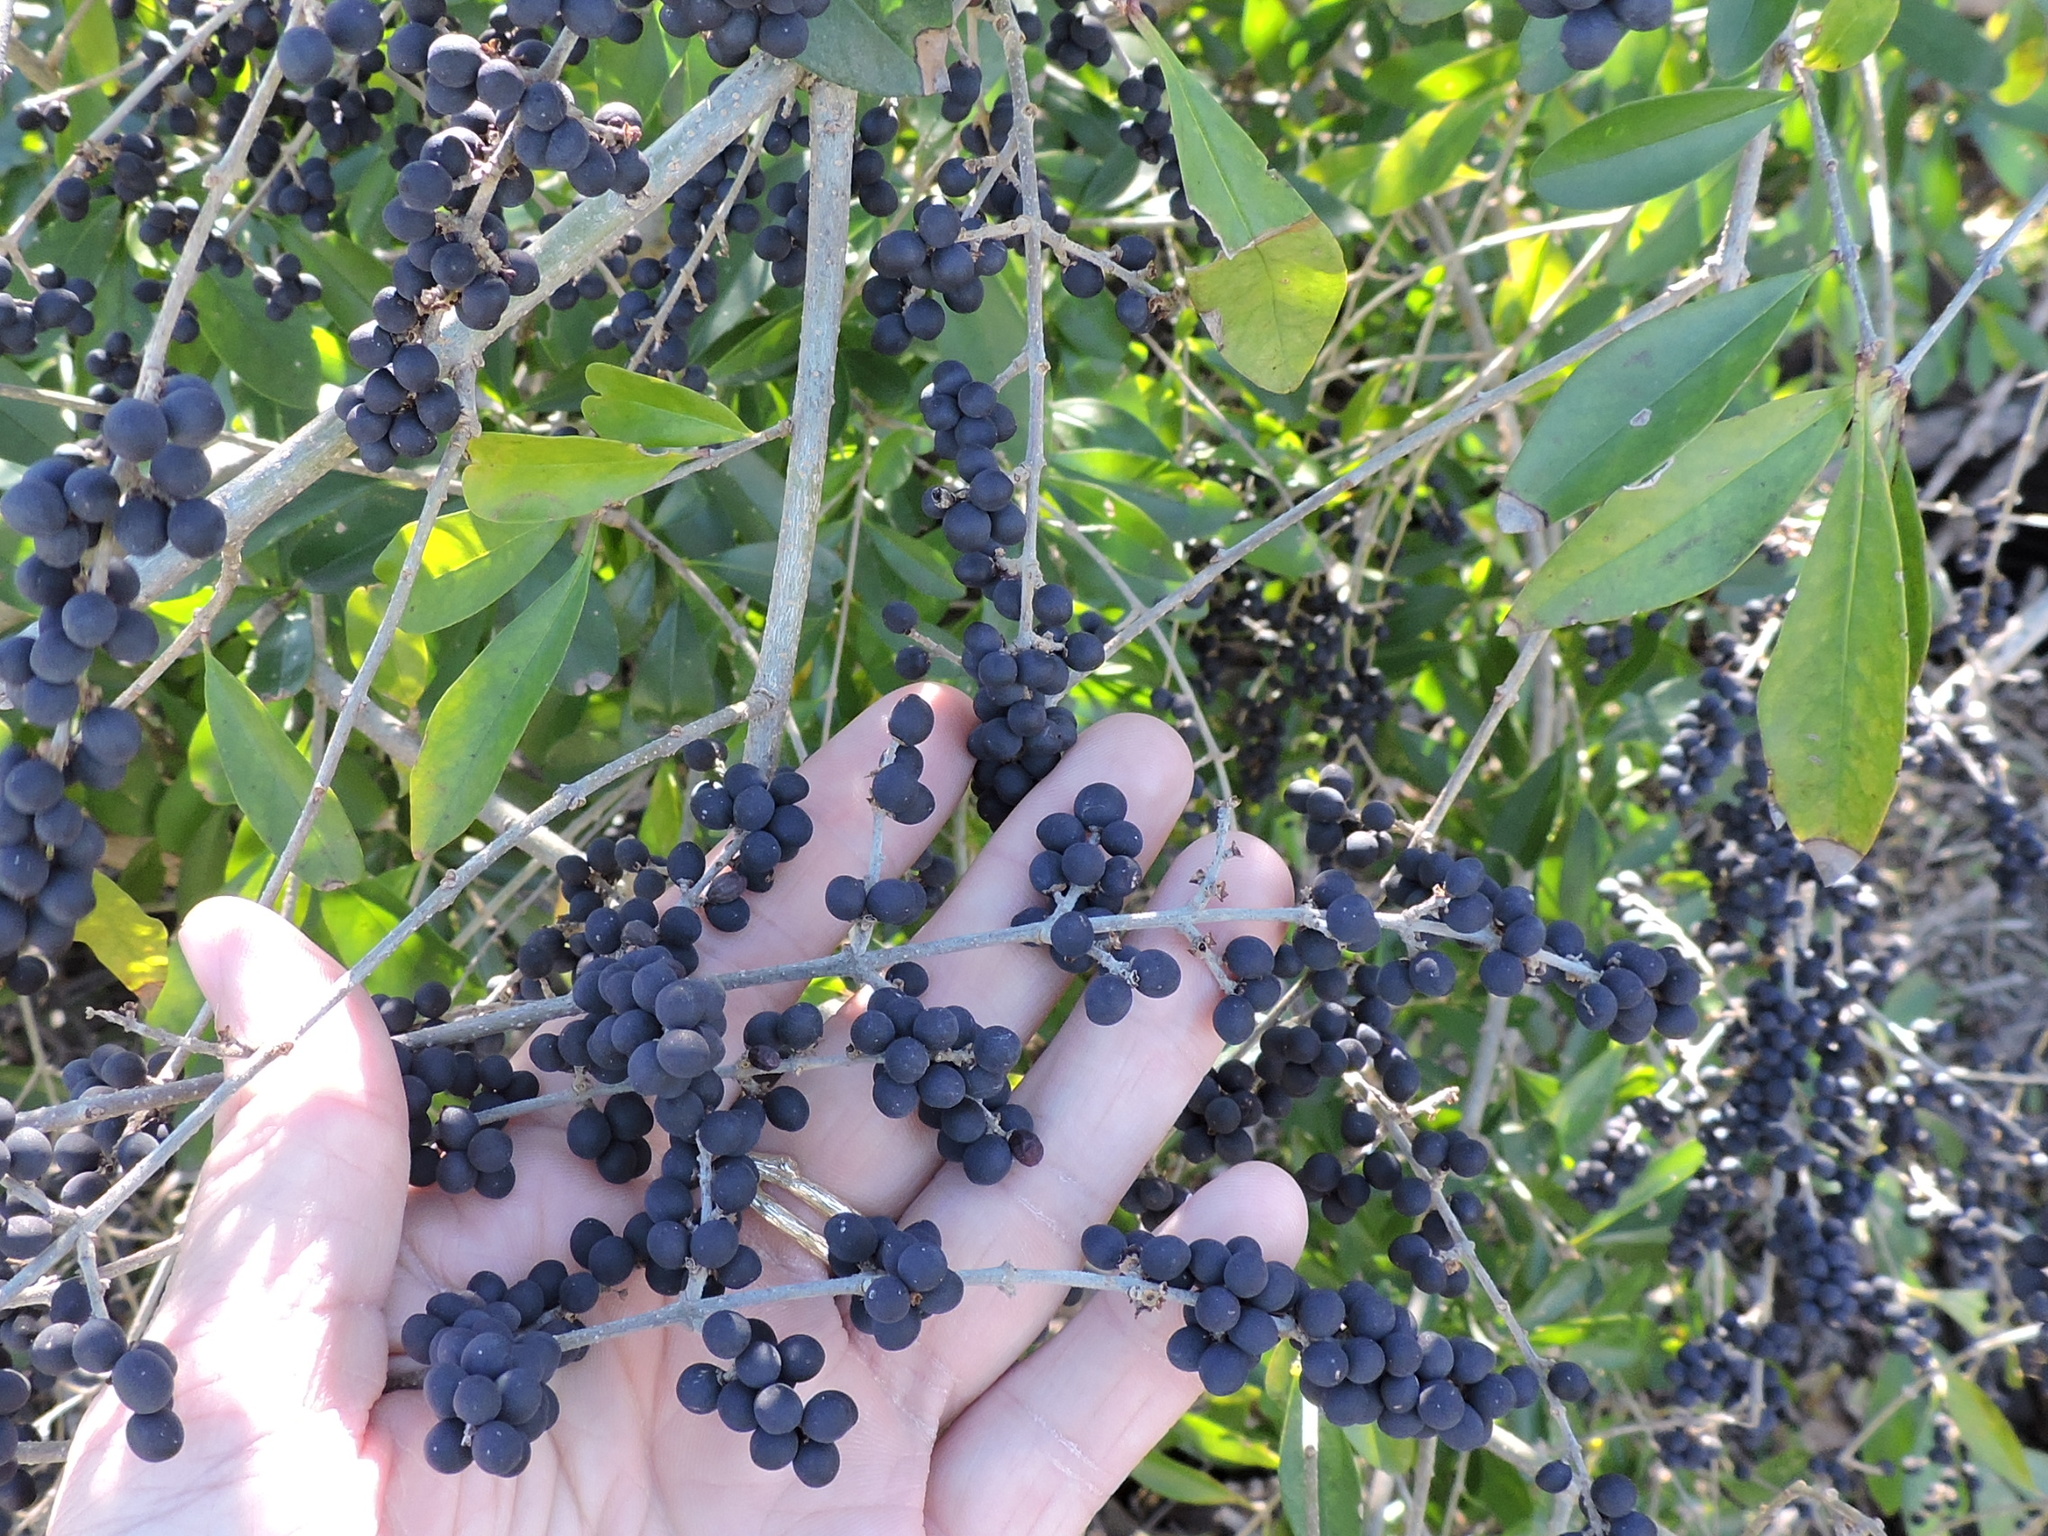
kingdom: Plantae
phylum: Tracheophyta
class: Magnoliopsida
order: Lamiales
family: Oleaceae
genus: Ligustrum
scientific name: Ligustrum quihoui
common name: Waxyleaf privet
